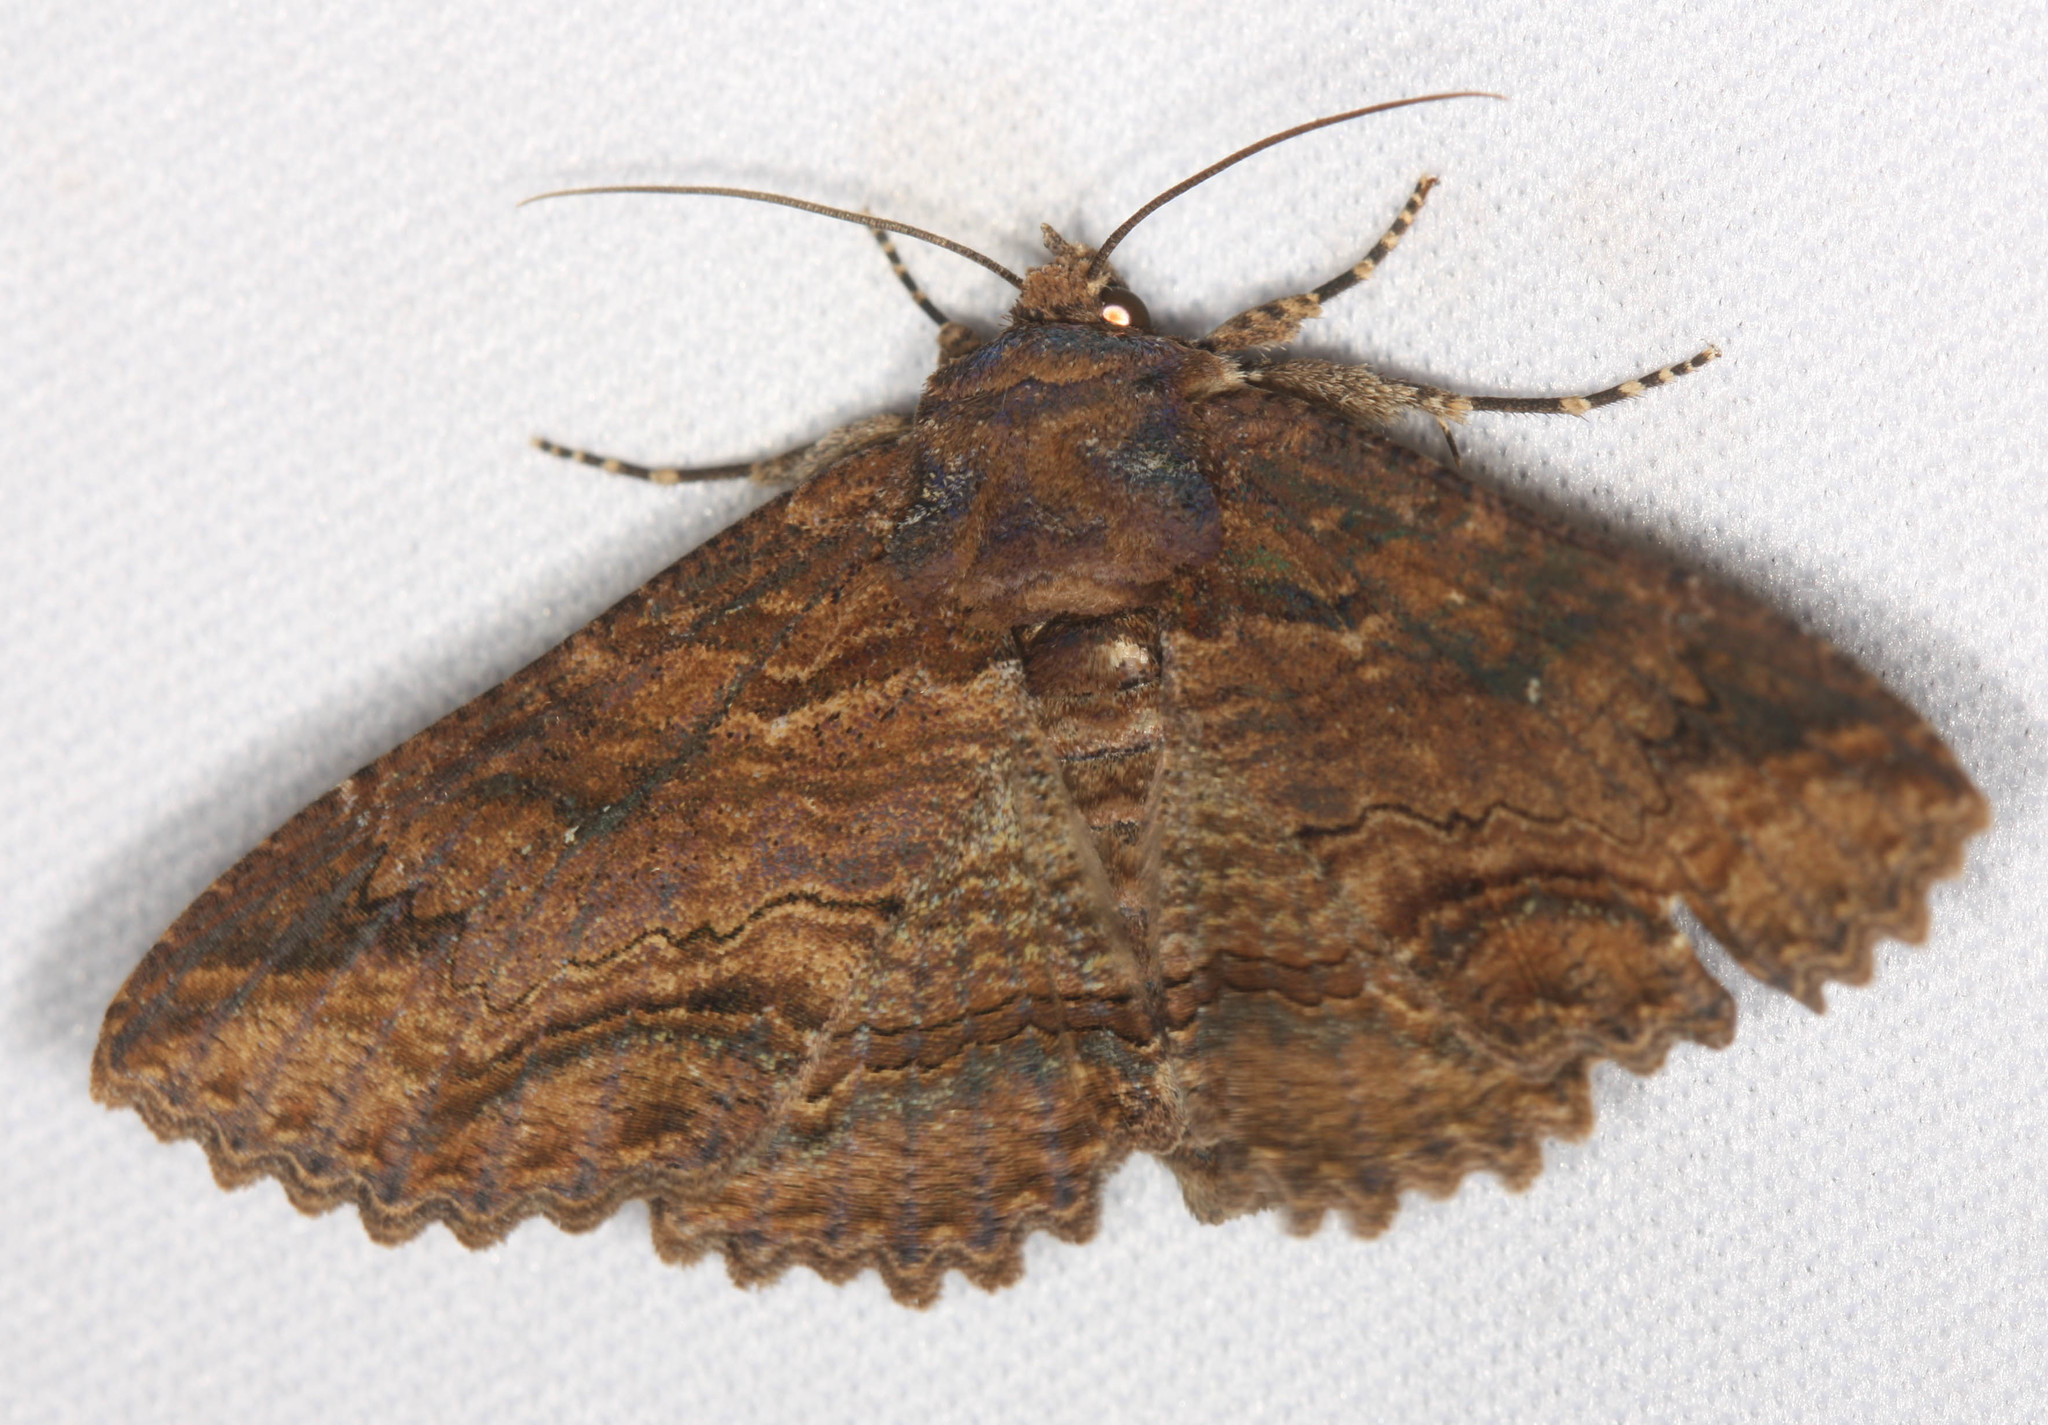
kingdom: Animalia
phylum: Arthropoda
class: Insecta
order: Lepidoptera
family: Erebidae
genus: Zale
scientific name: Zale lunata
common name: Lunate zale moth
